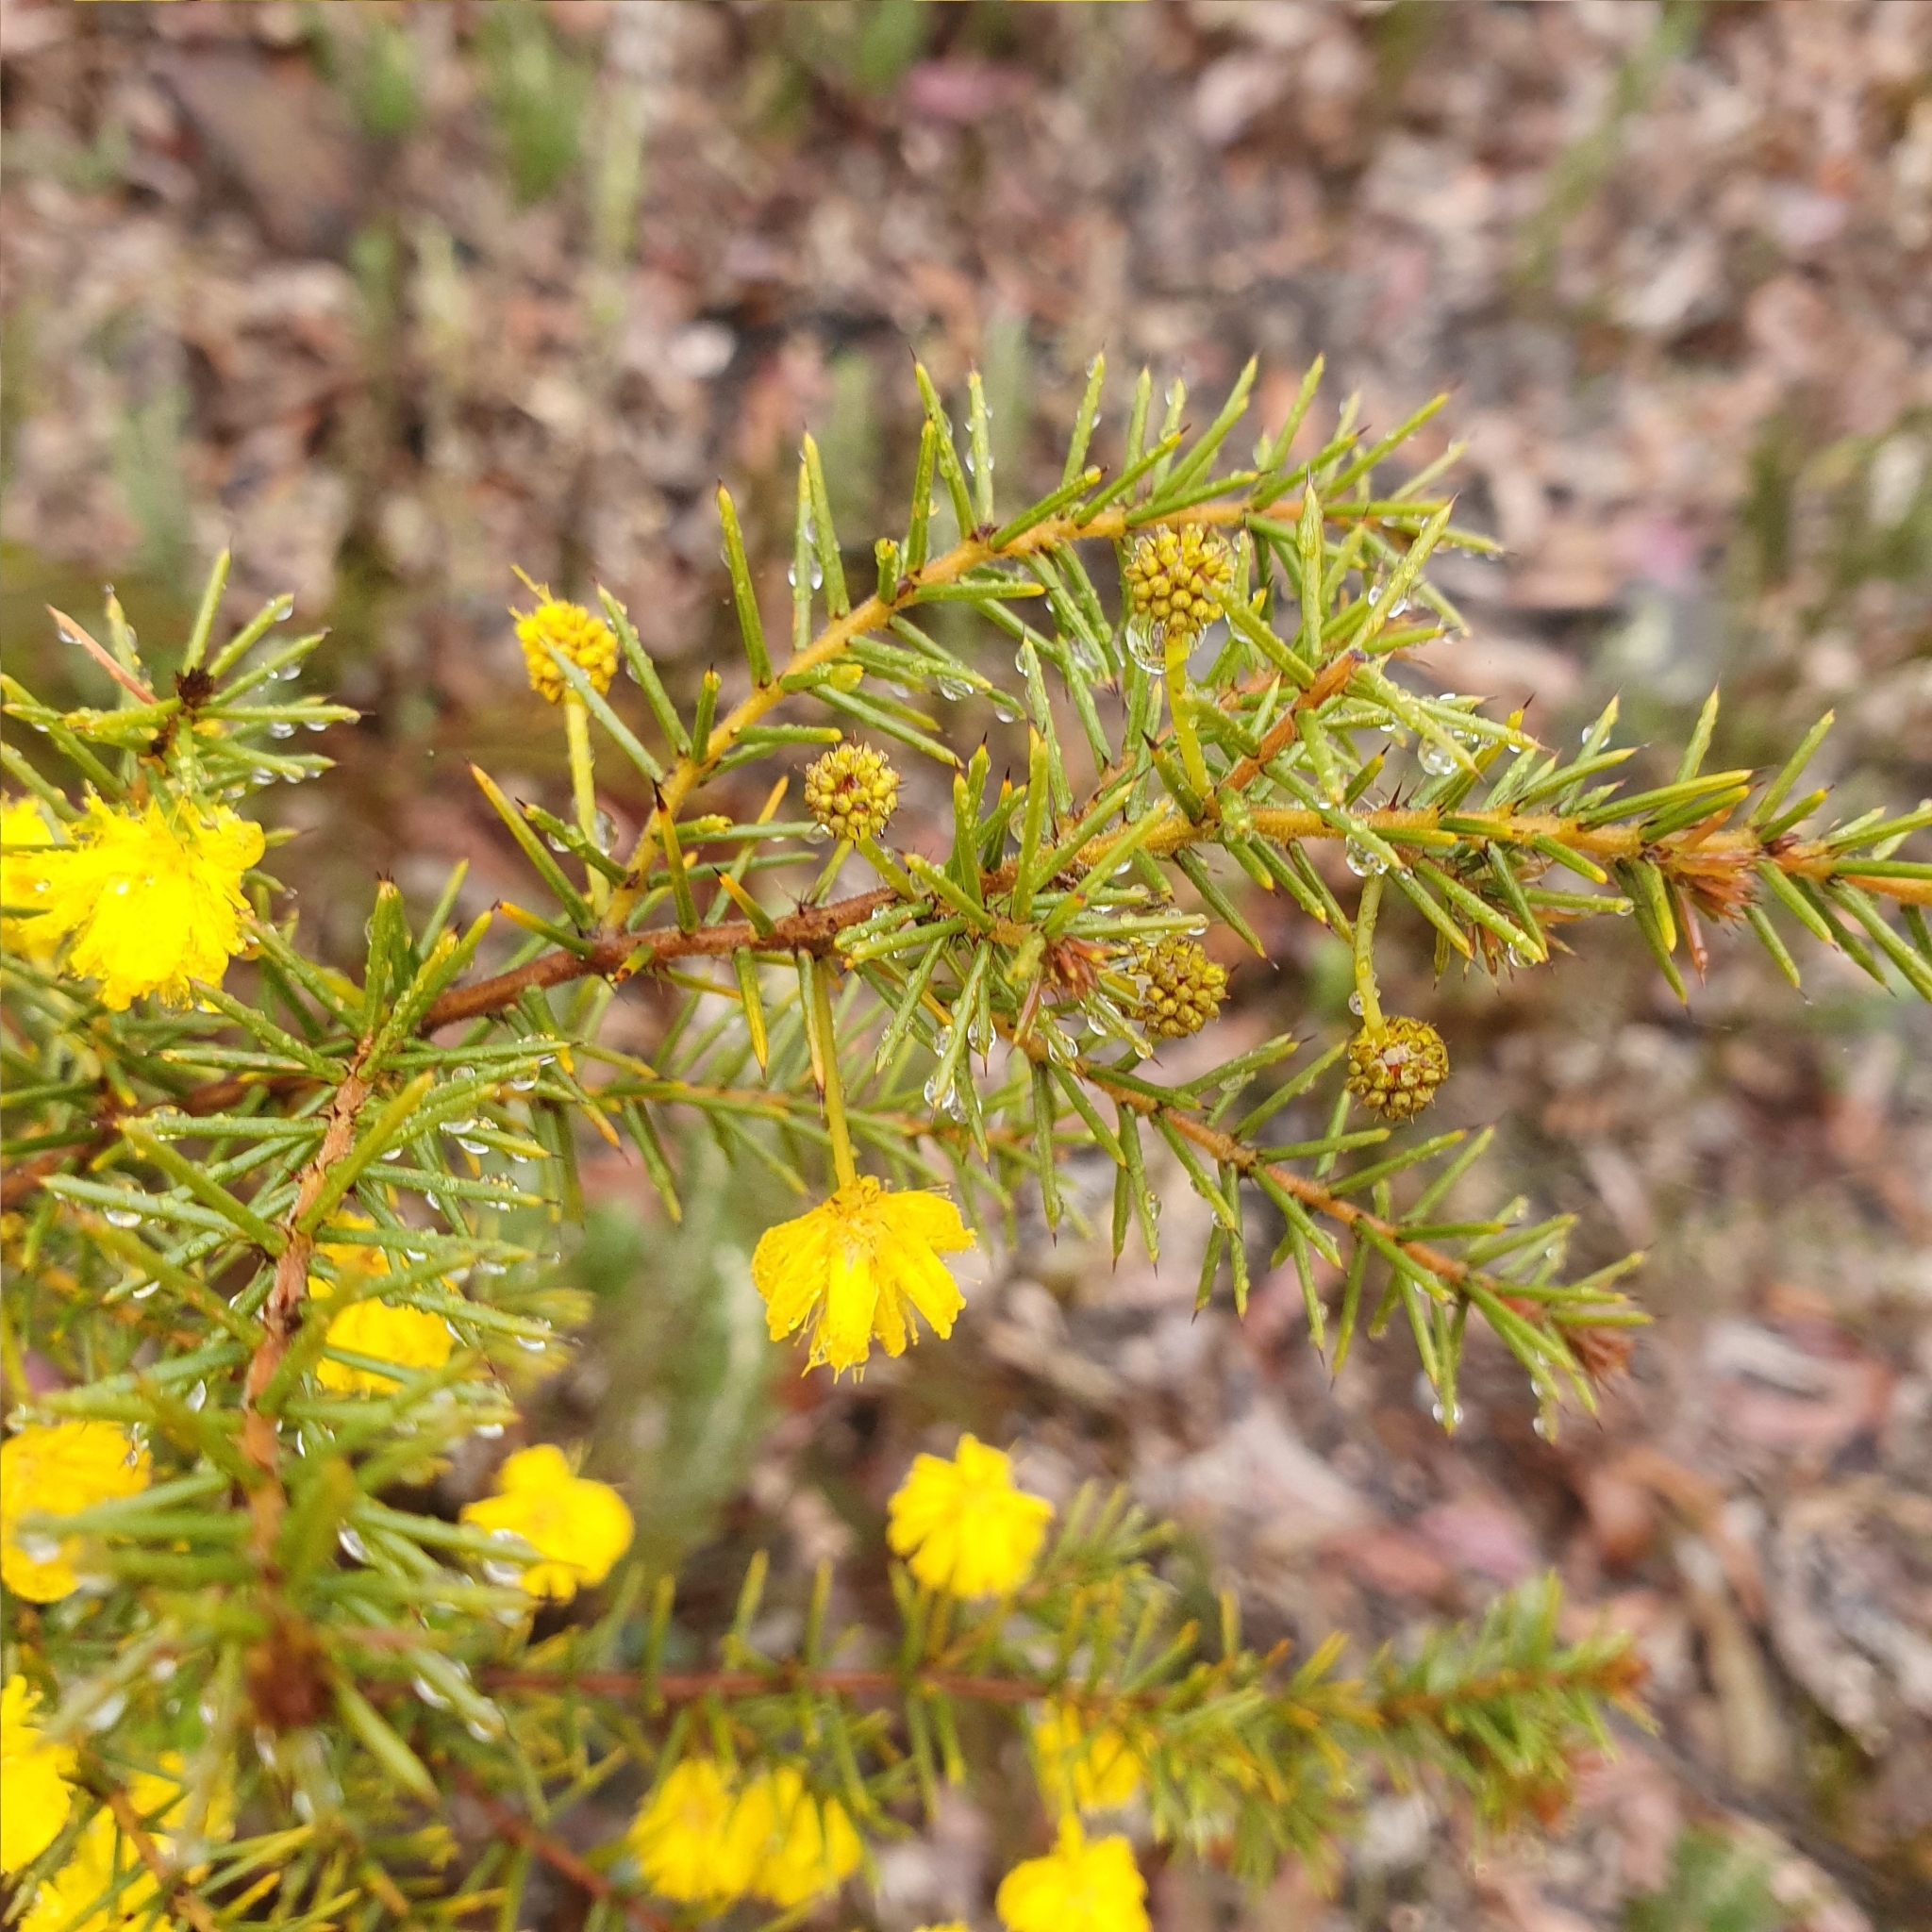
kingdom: Plantae
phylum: Tracheophyta
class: Magnoliopsida
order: Fabales
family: Fabaceae
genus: Acacia
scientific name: Acacia echinula
